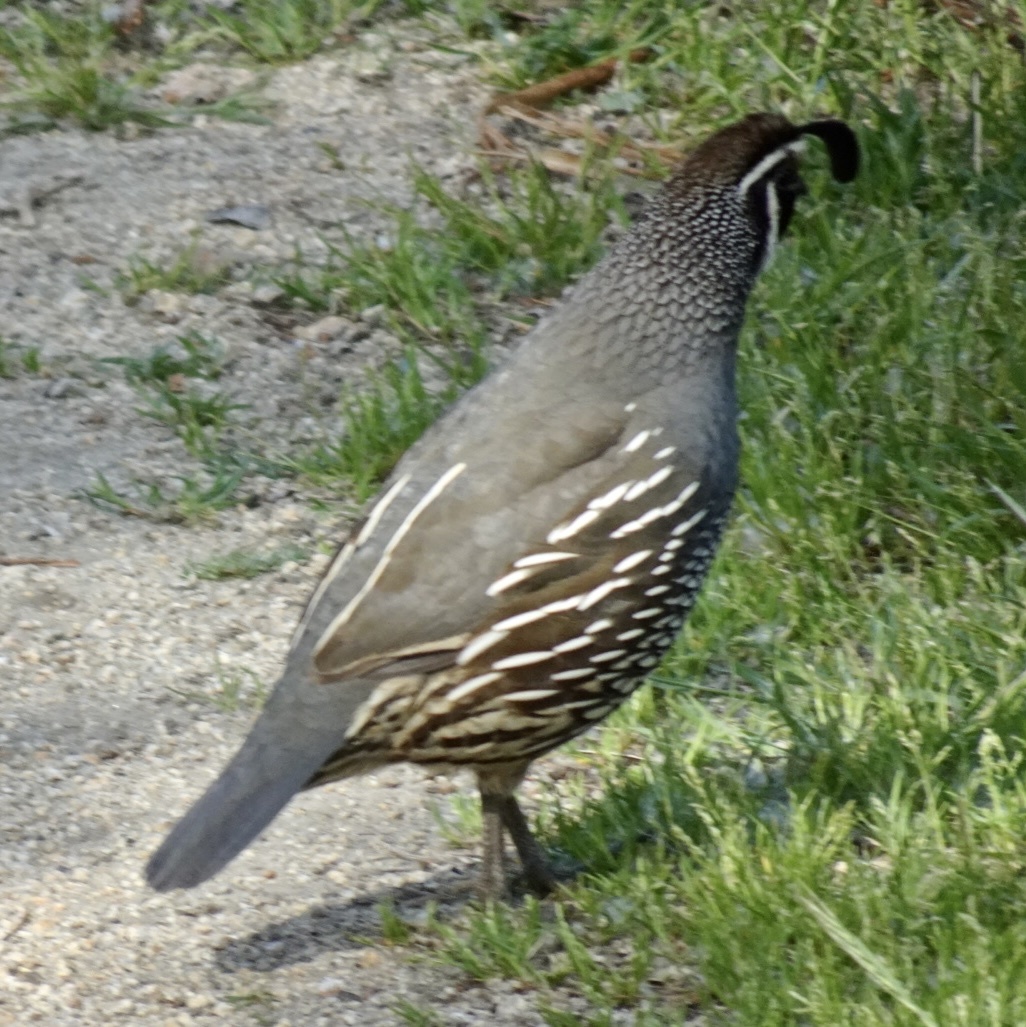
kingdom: Animalia
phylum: Chordata
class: Aves
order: Galliformes
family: Odontophoridae
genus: Callipepla
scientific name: Callipepla californica
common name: California quail
